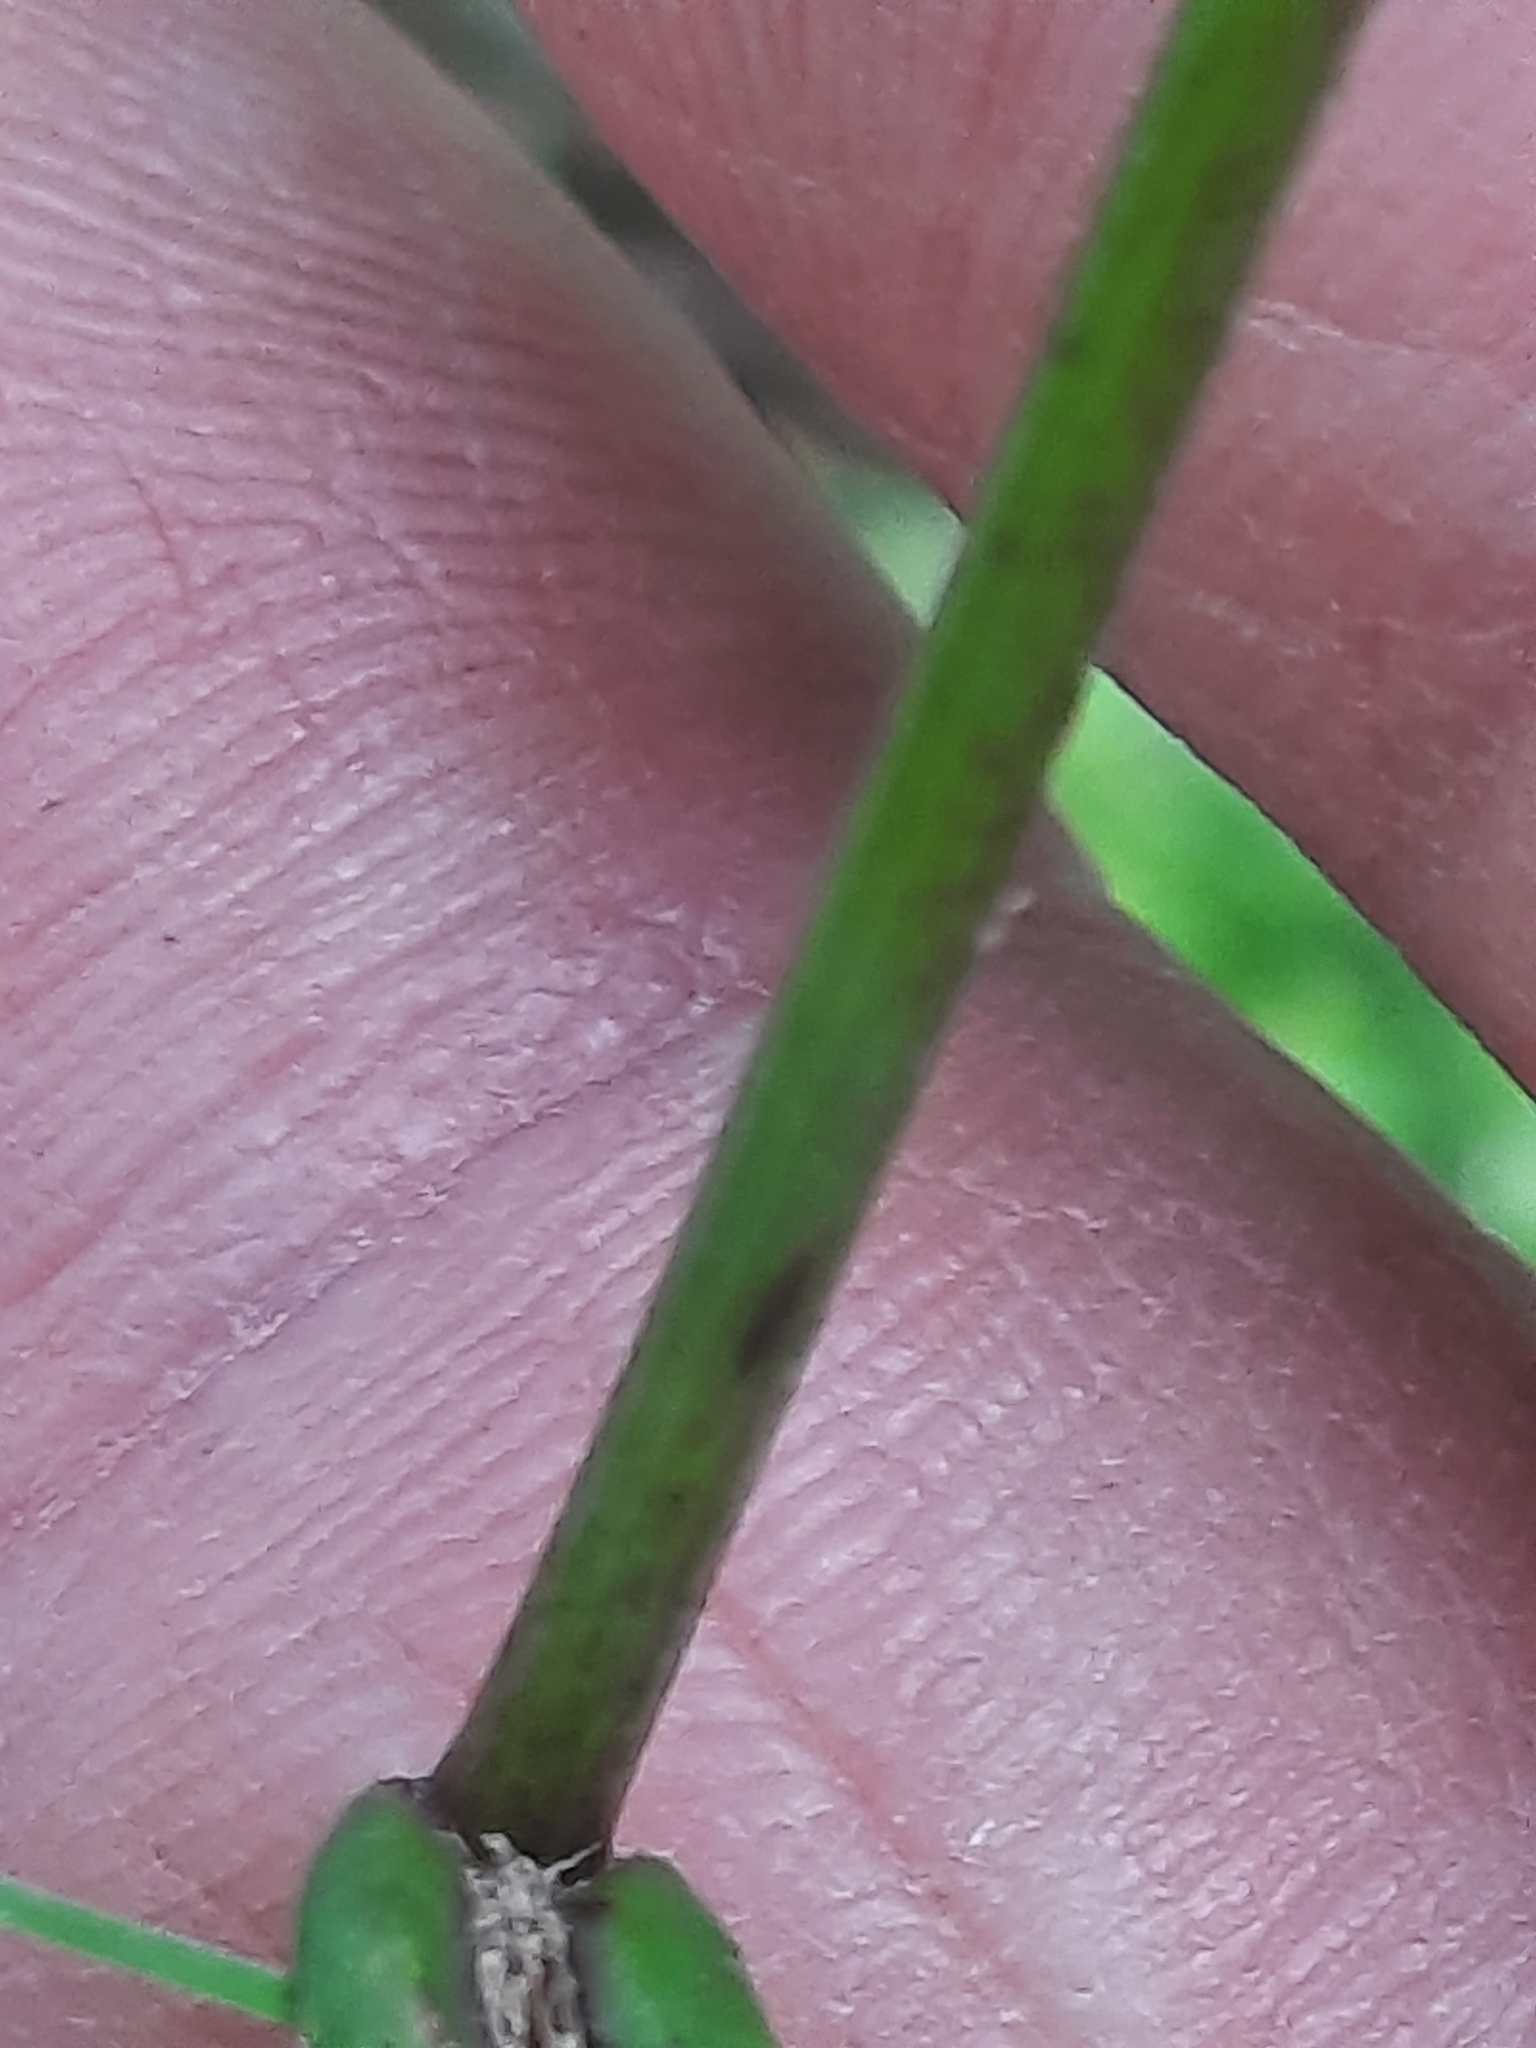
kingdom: Plantae
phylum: Tracheophyta
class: Magnoliopsida
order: Asterales
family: Asteraceae
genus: Hieracium
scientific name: Hieracium paniculatum
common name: Allegheny hawkweed
